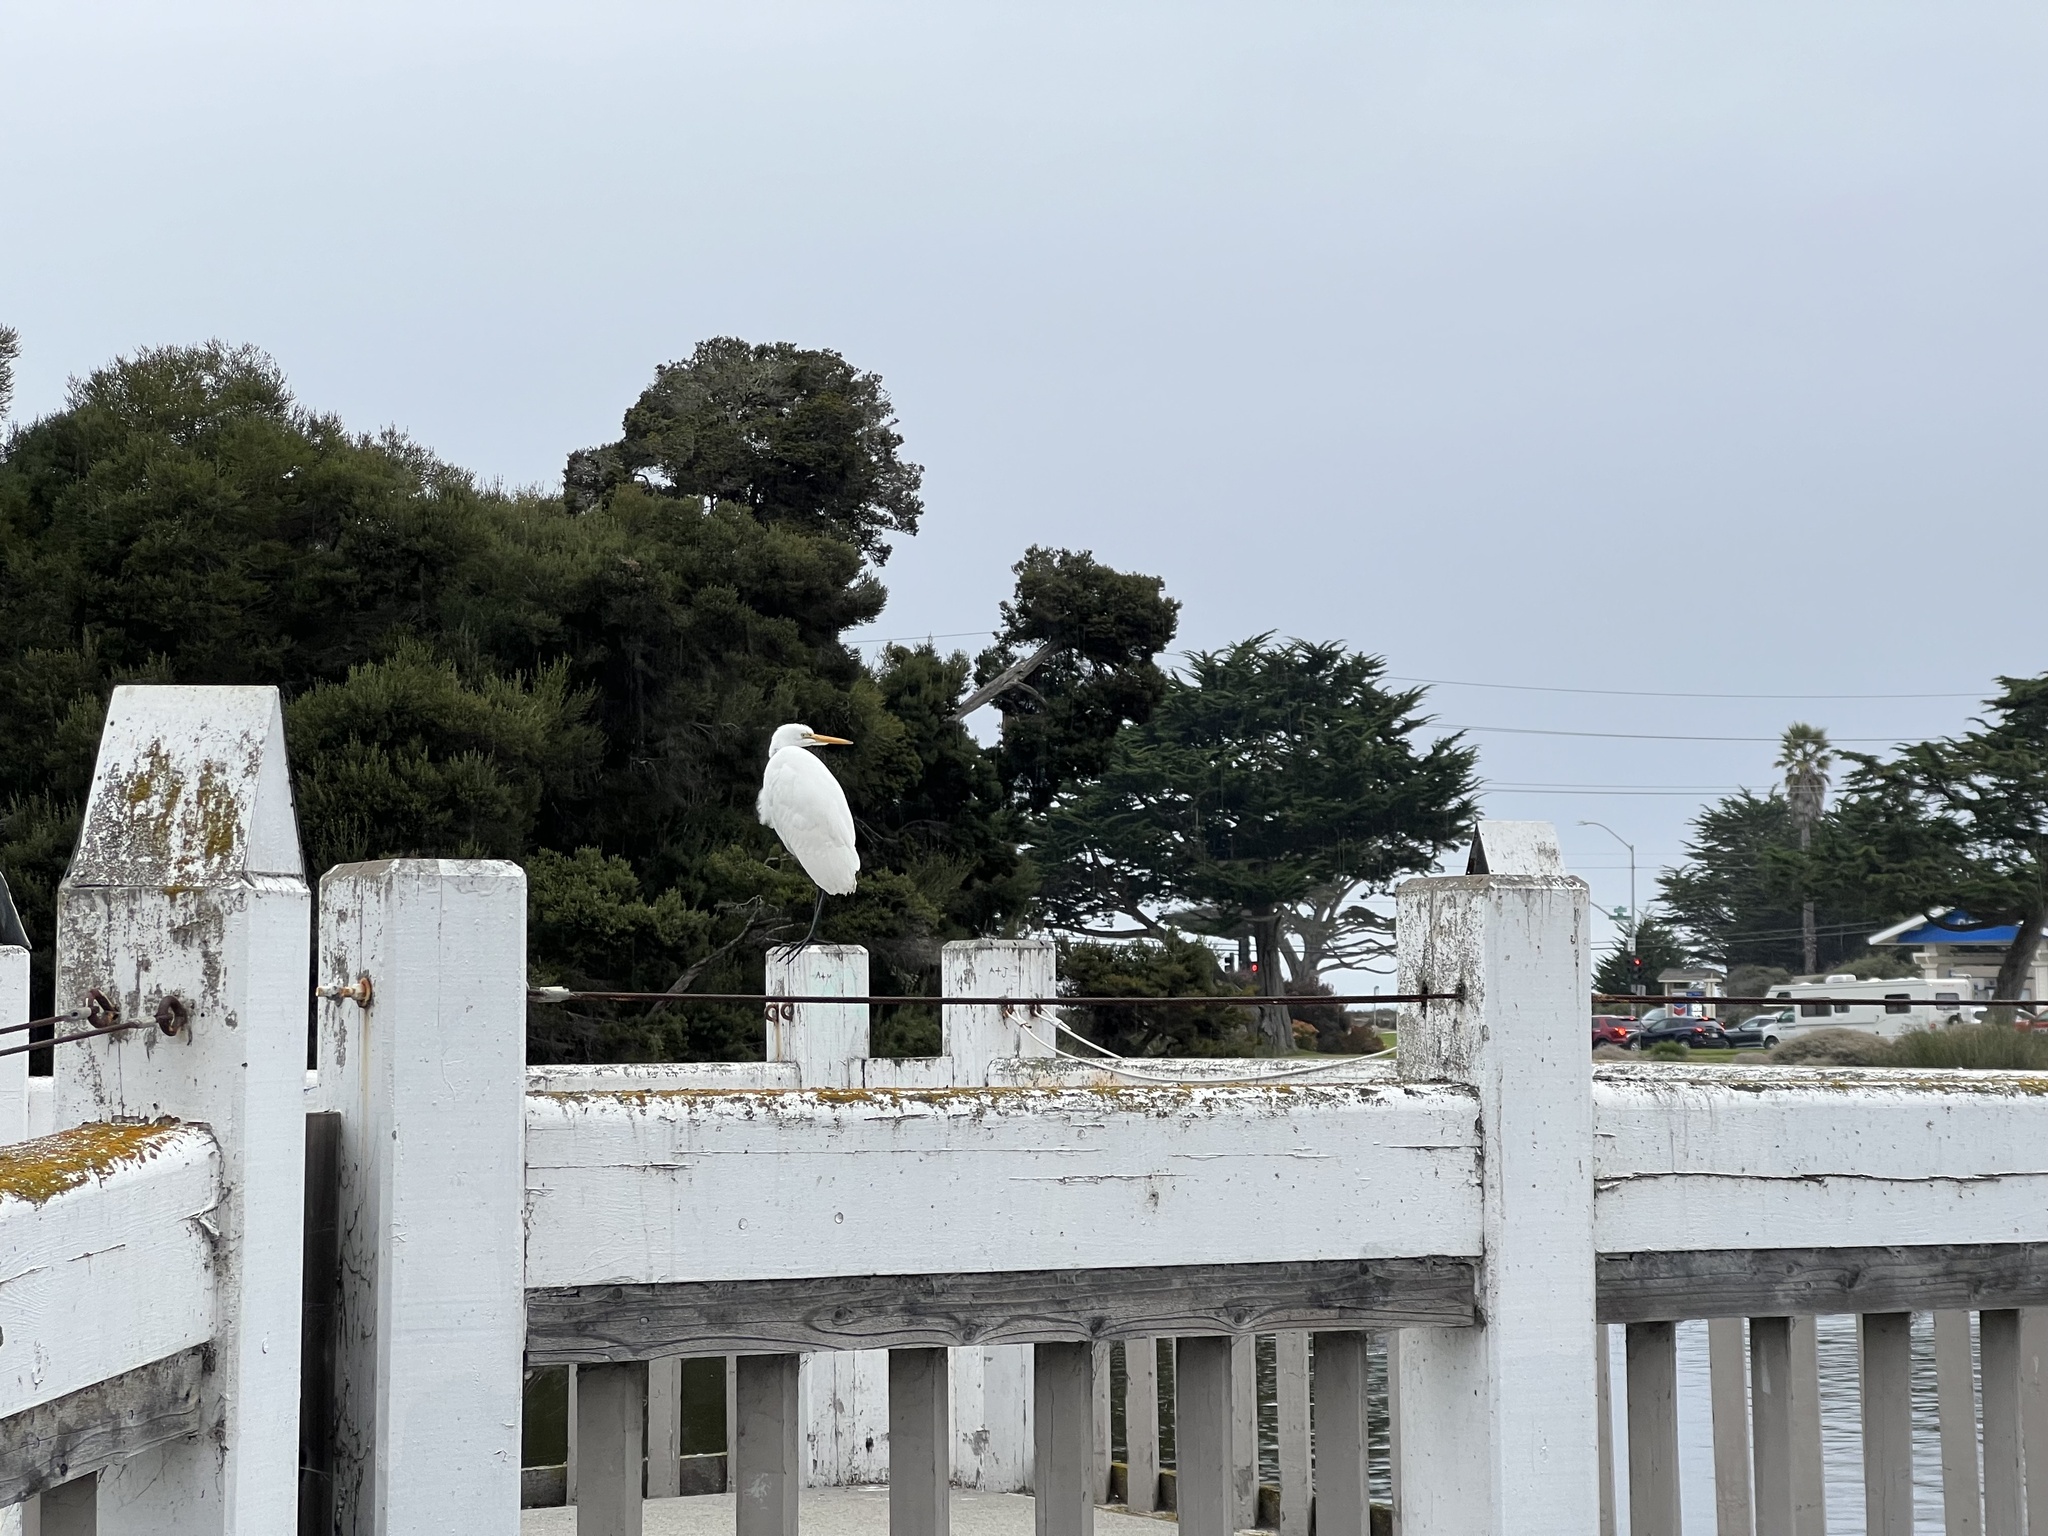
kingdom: Animalia
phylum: Chordata
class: Aves
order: Pelecaniformes
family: Ardeidae
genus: Ardea
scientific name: Ardea alba
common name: Great egret
